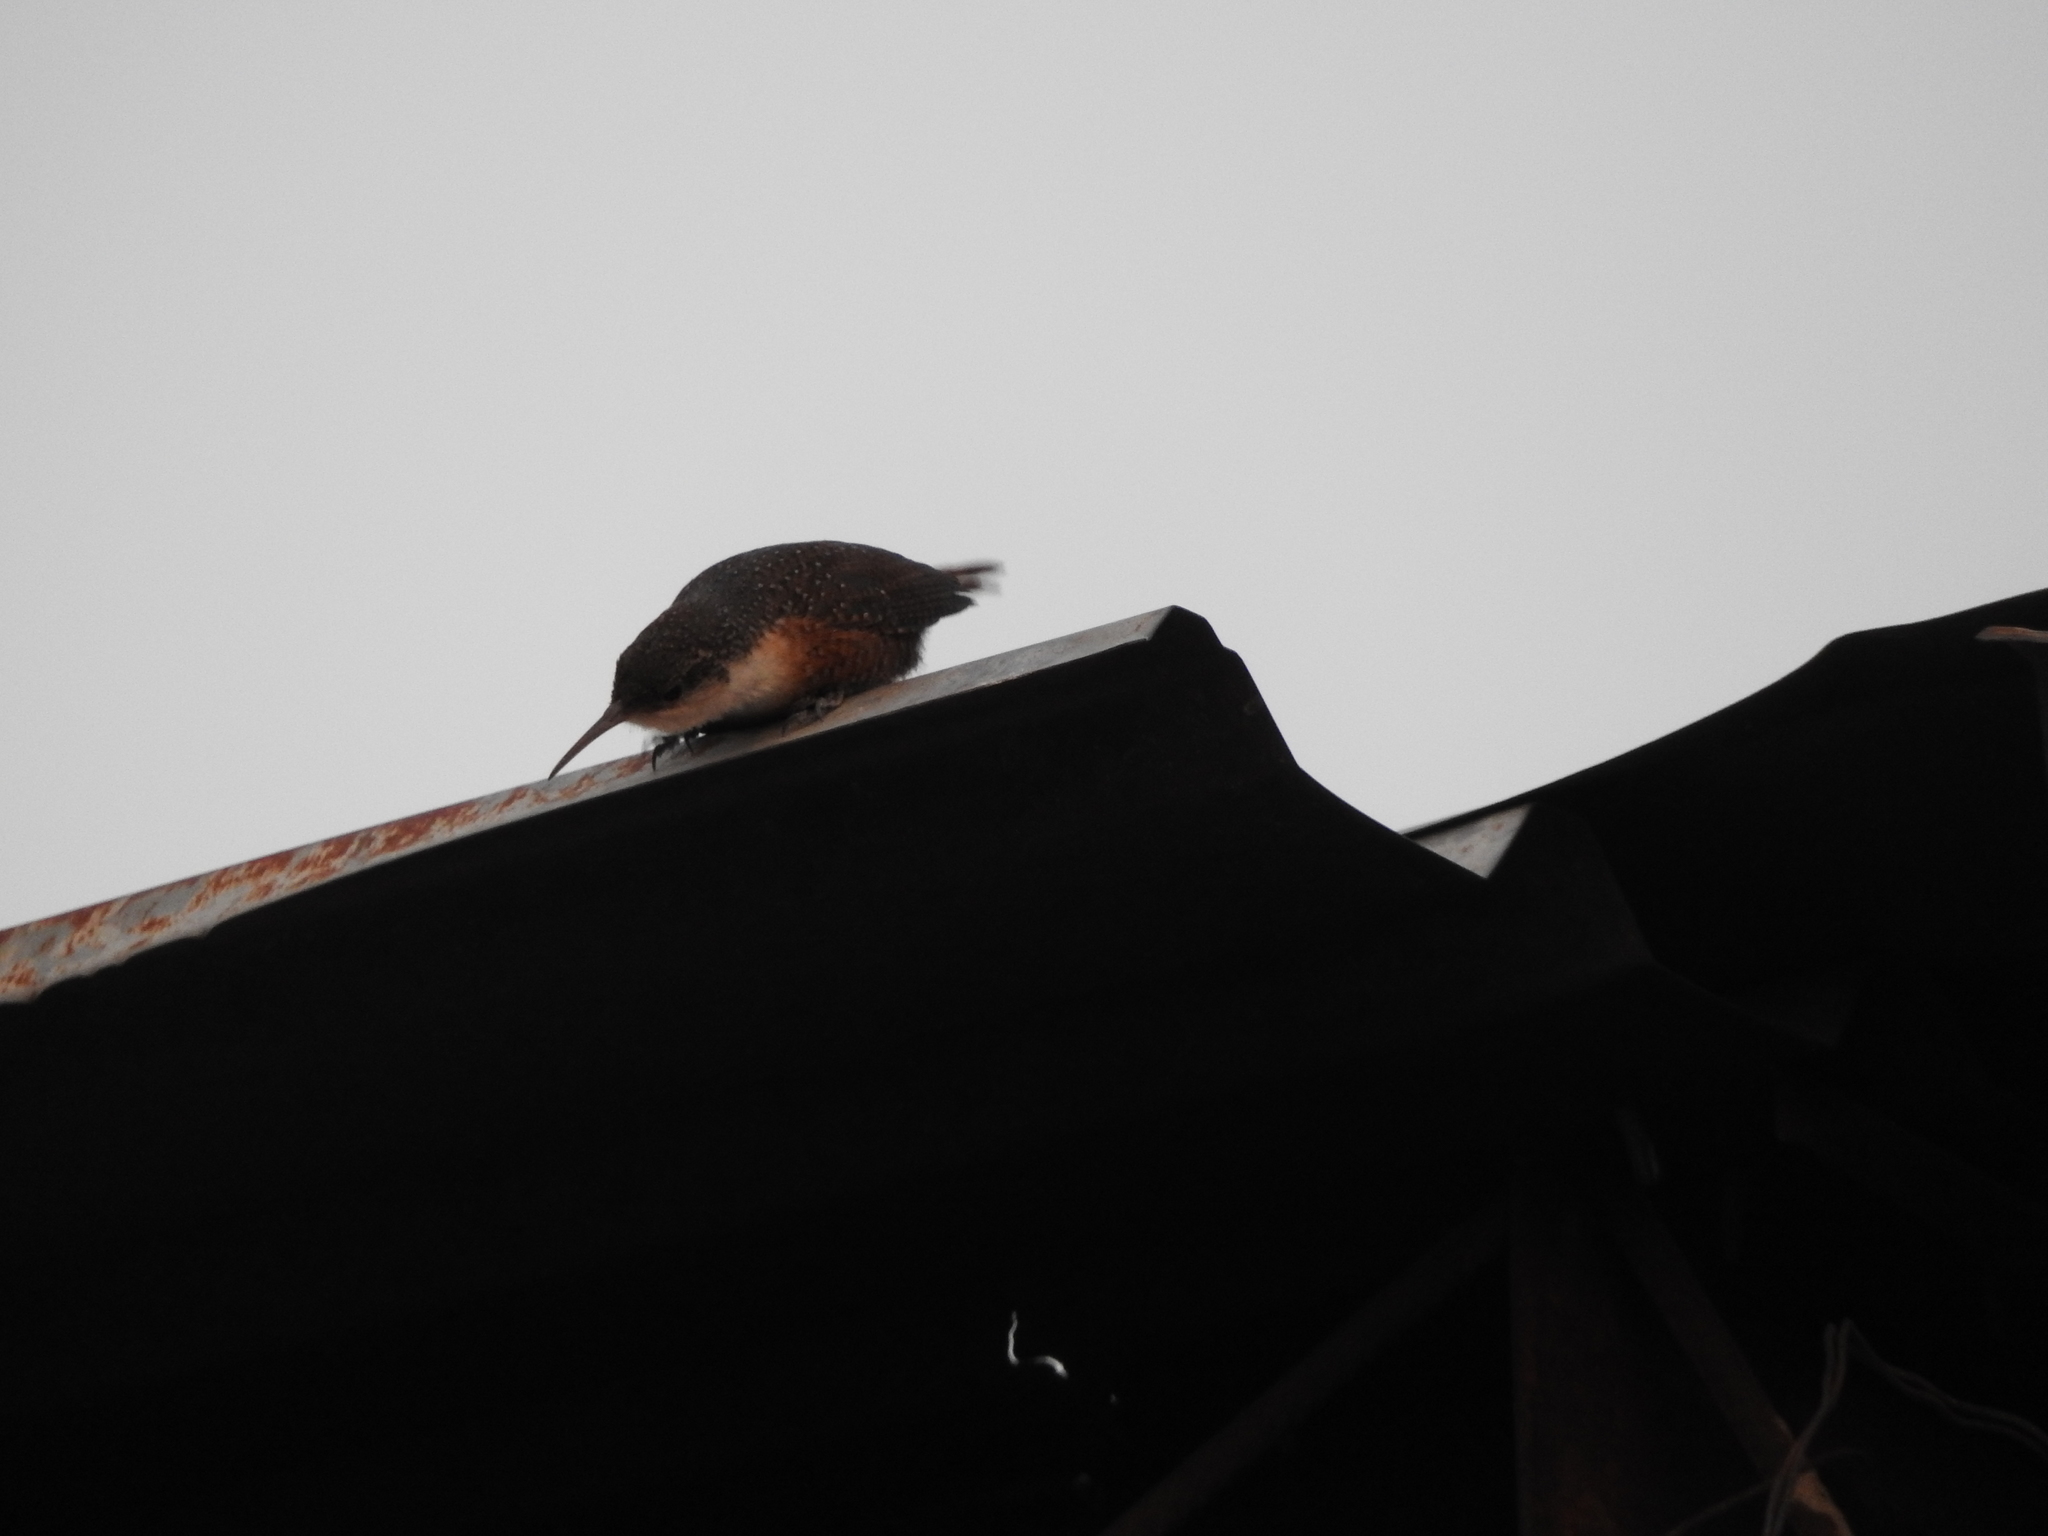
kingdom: Animalia
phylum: Chordata
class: Aves
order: Passeriformes
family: Troglodytidae
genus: Catherpes
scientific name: Catherpes mexicanus
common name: Canyon wren
